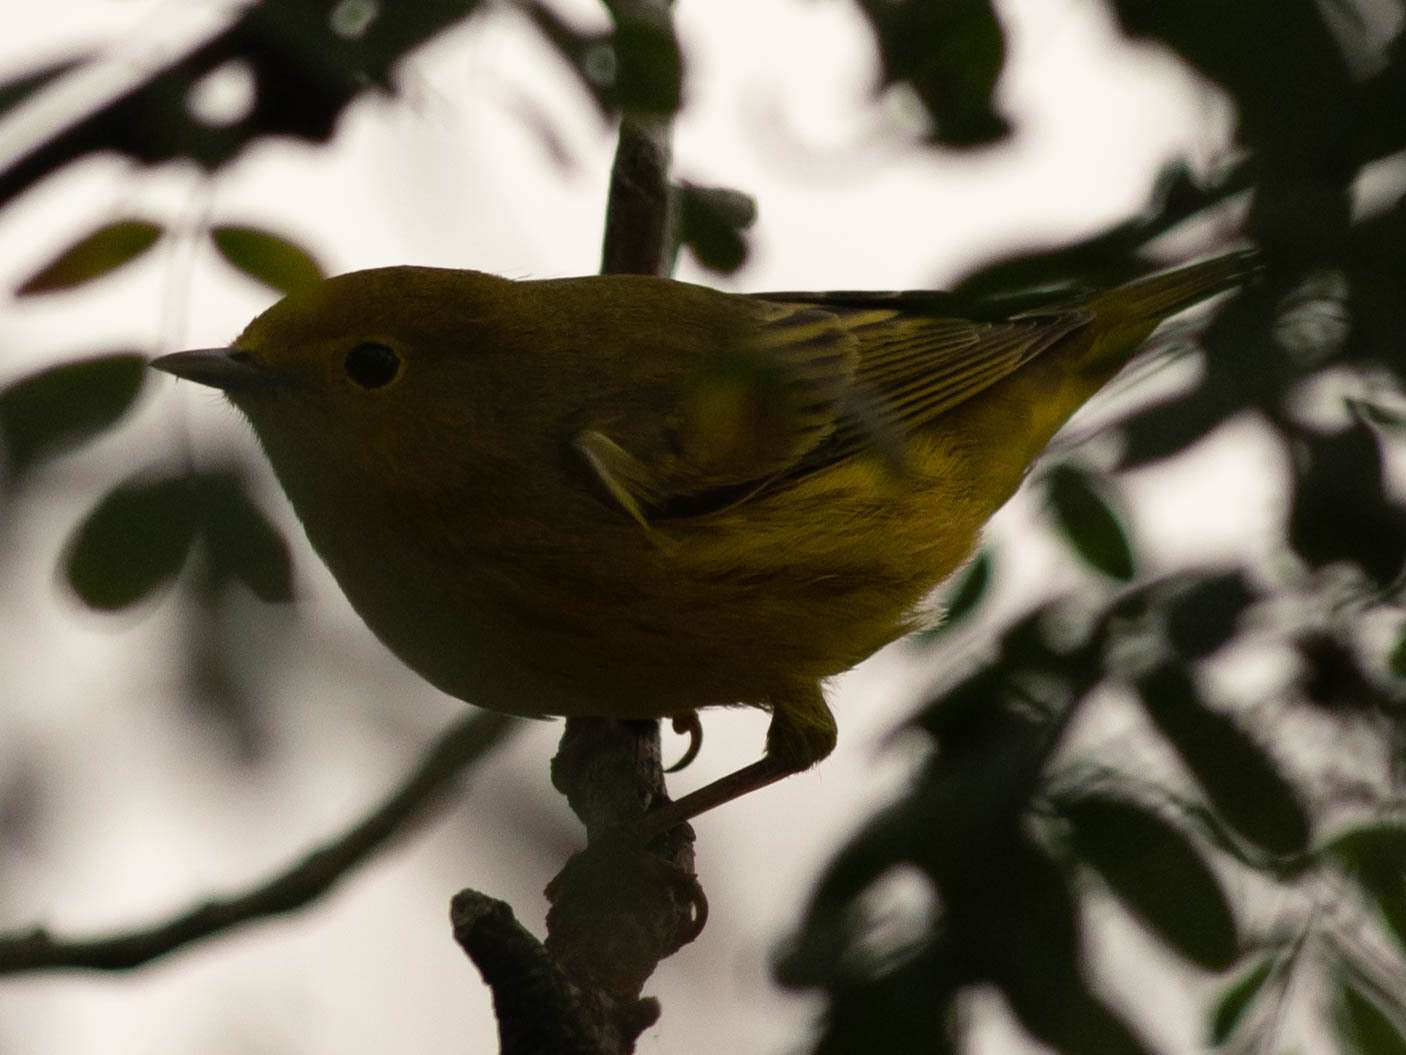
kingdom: Animalia
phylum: Chordata
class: Aves
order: Passeriformes
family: Parulidae
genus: Setophaga
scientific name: Setophaga petechia
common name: Yellow warbler
